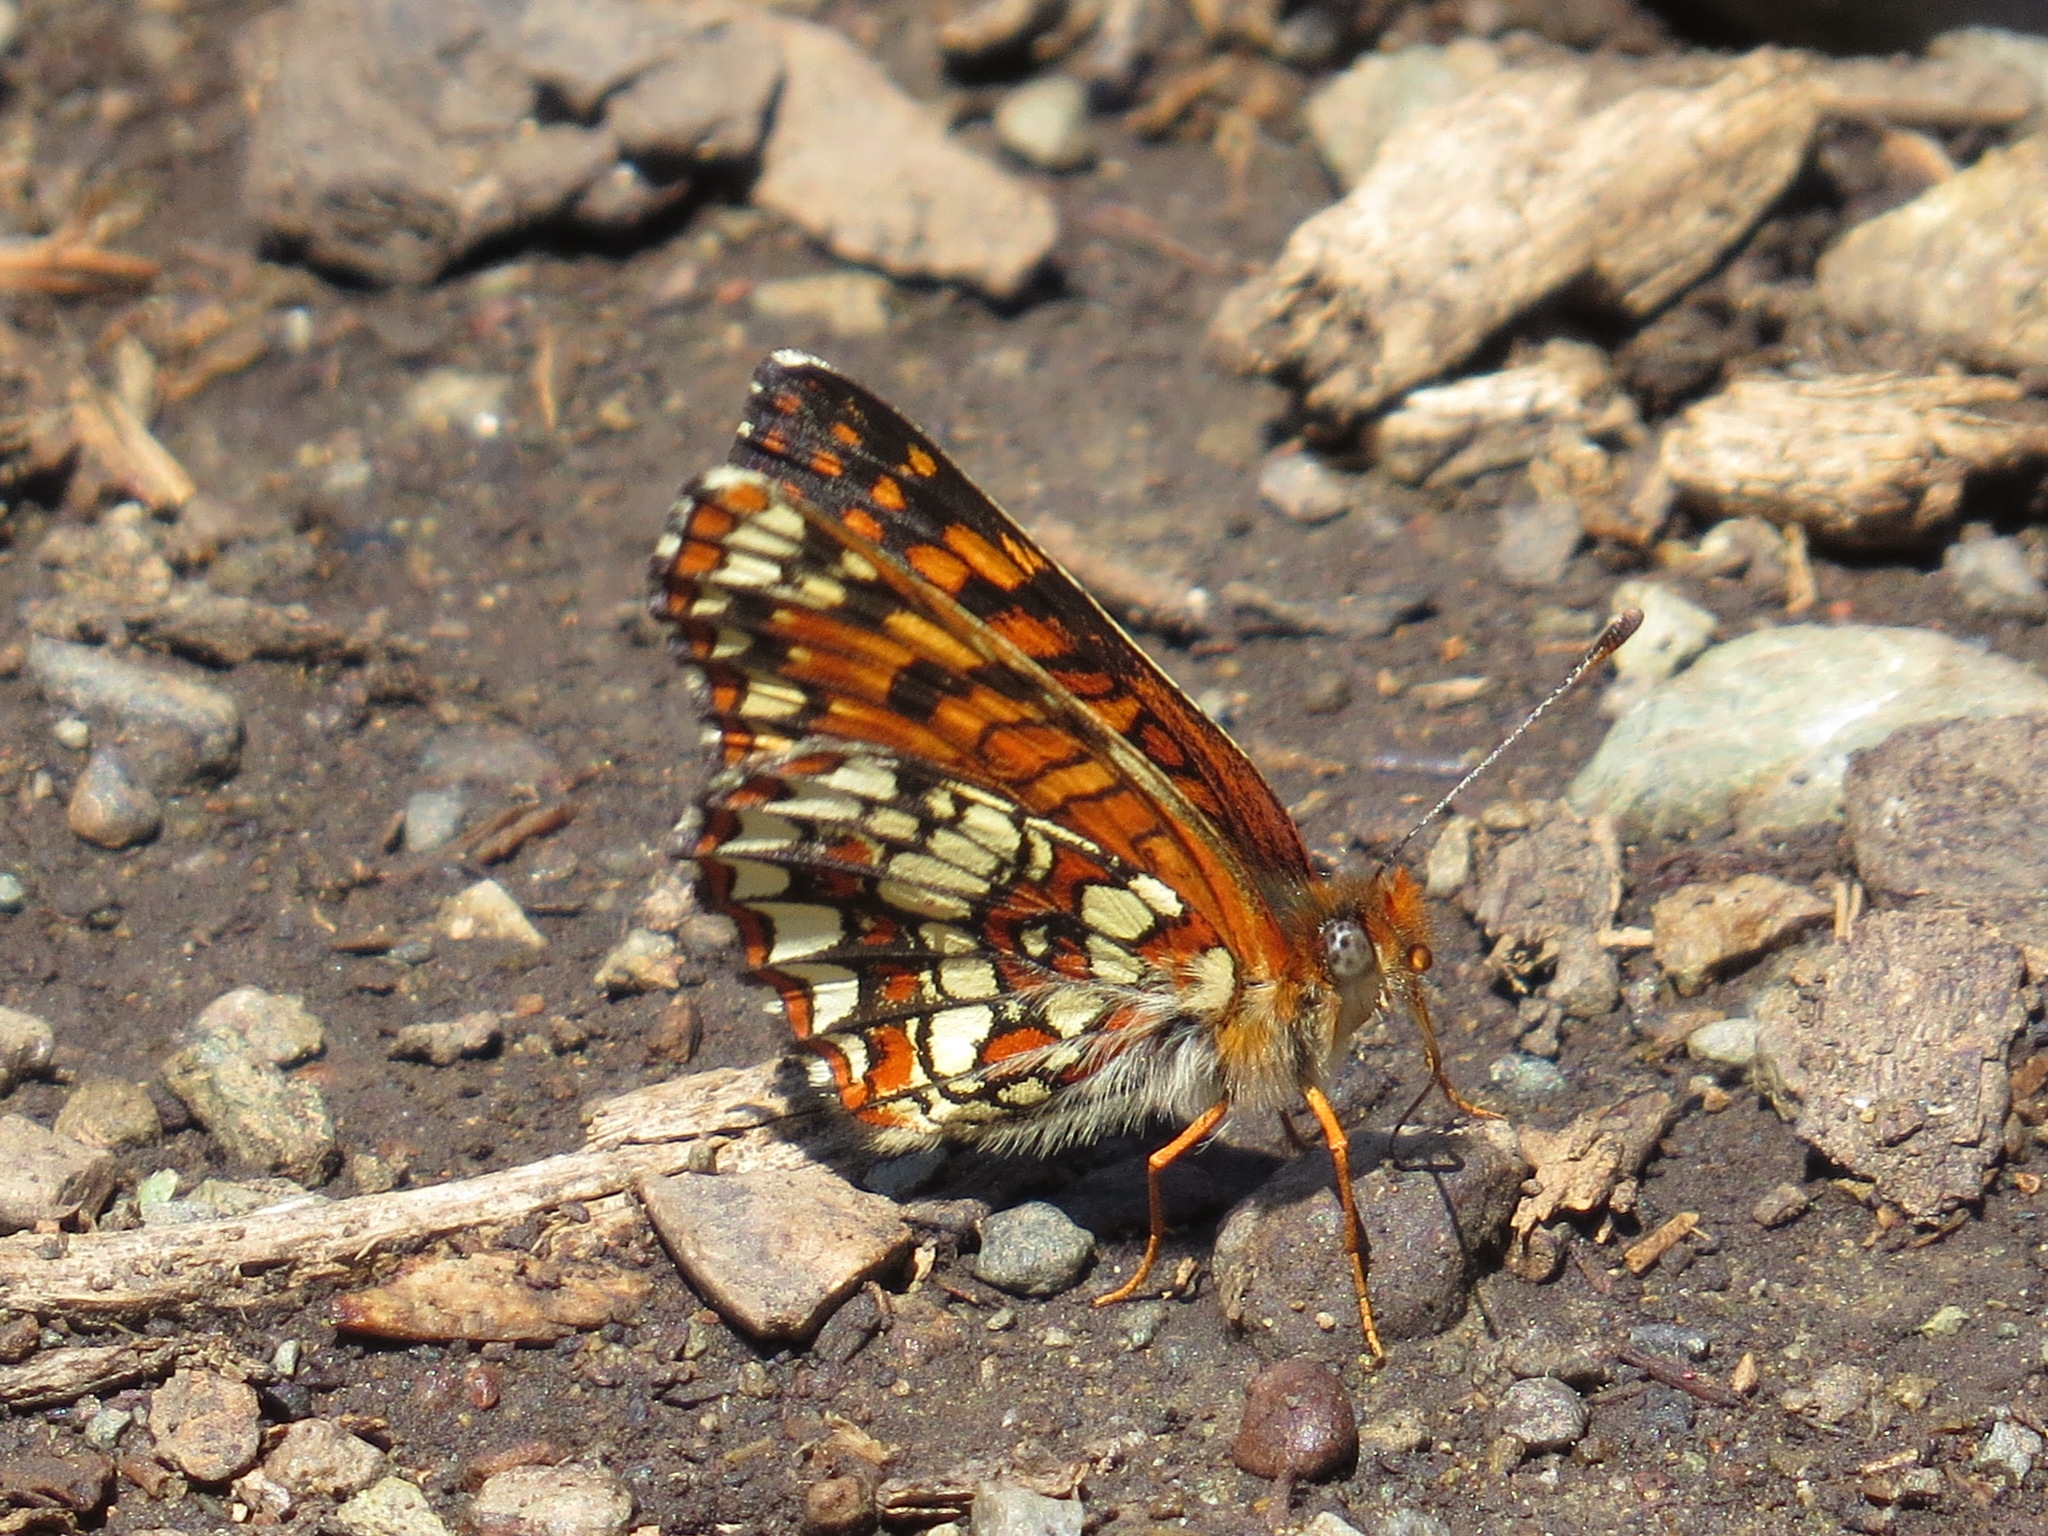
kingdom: Animalia
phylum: Arthropoda
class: Insecta
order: Lepidoptera
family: Nymphalidae
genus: Chlosyne
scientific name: Chlosyne palla
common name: Northern checkerspot
